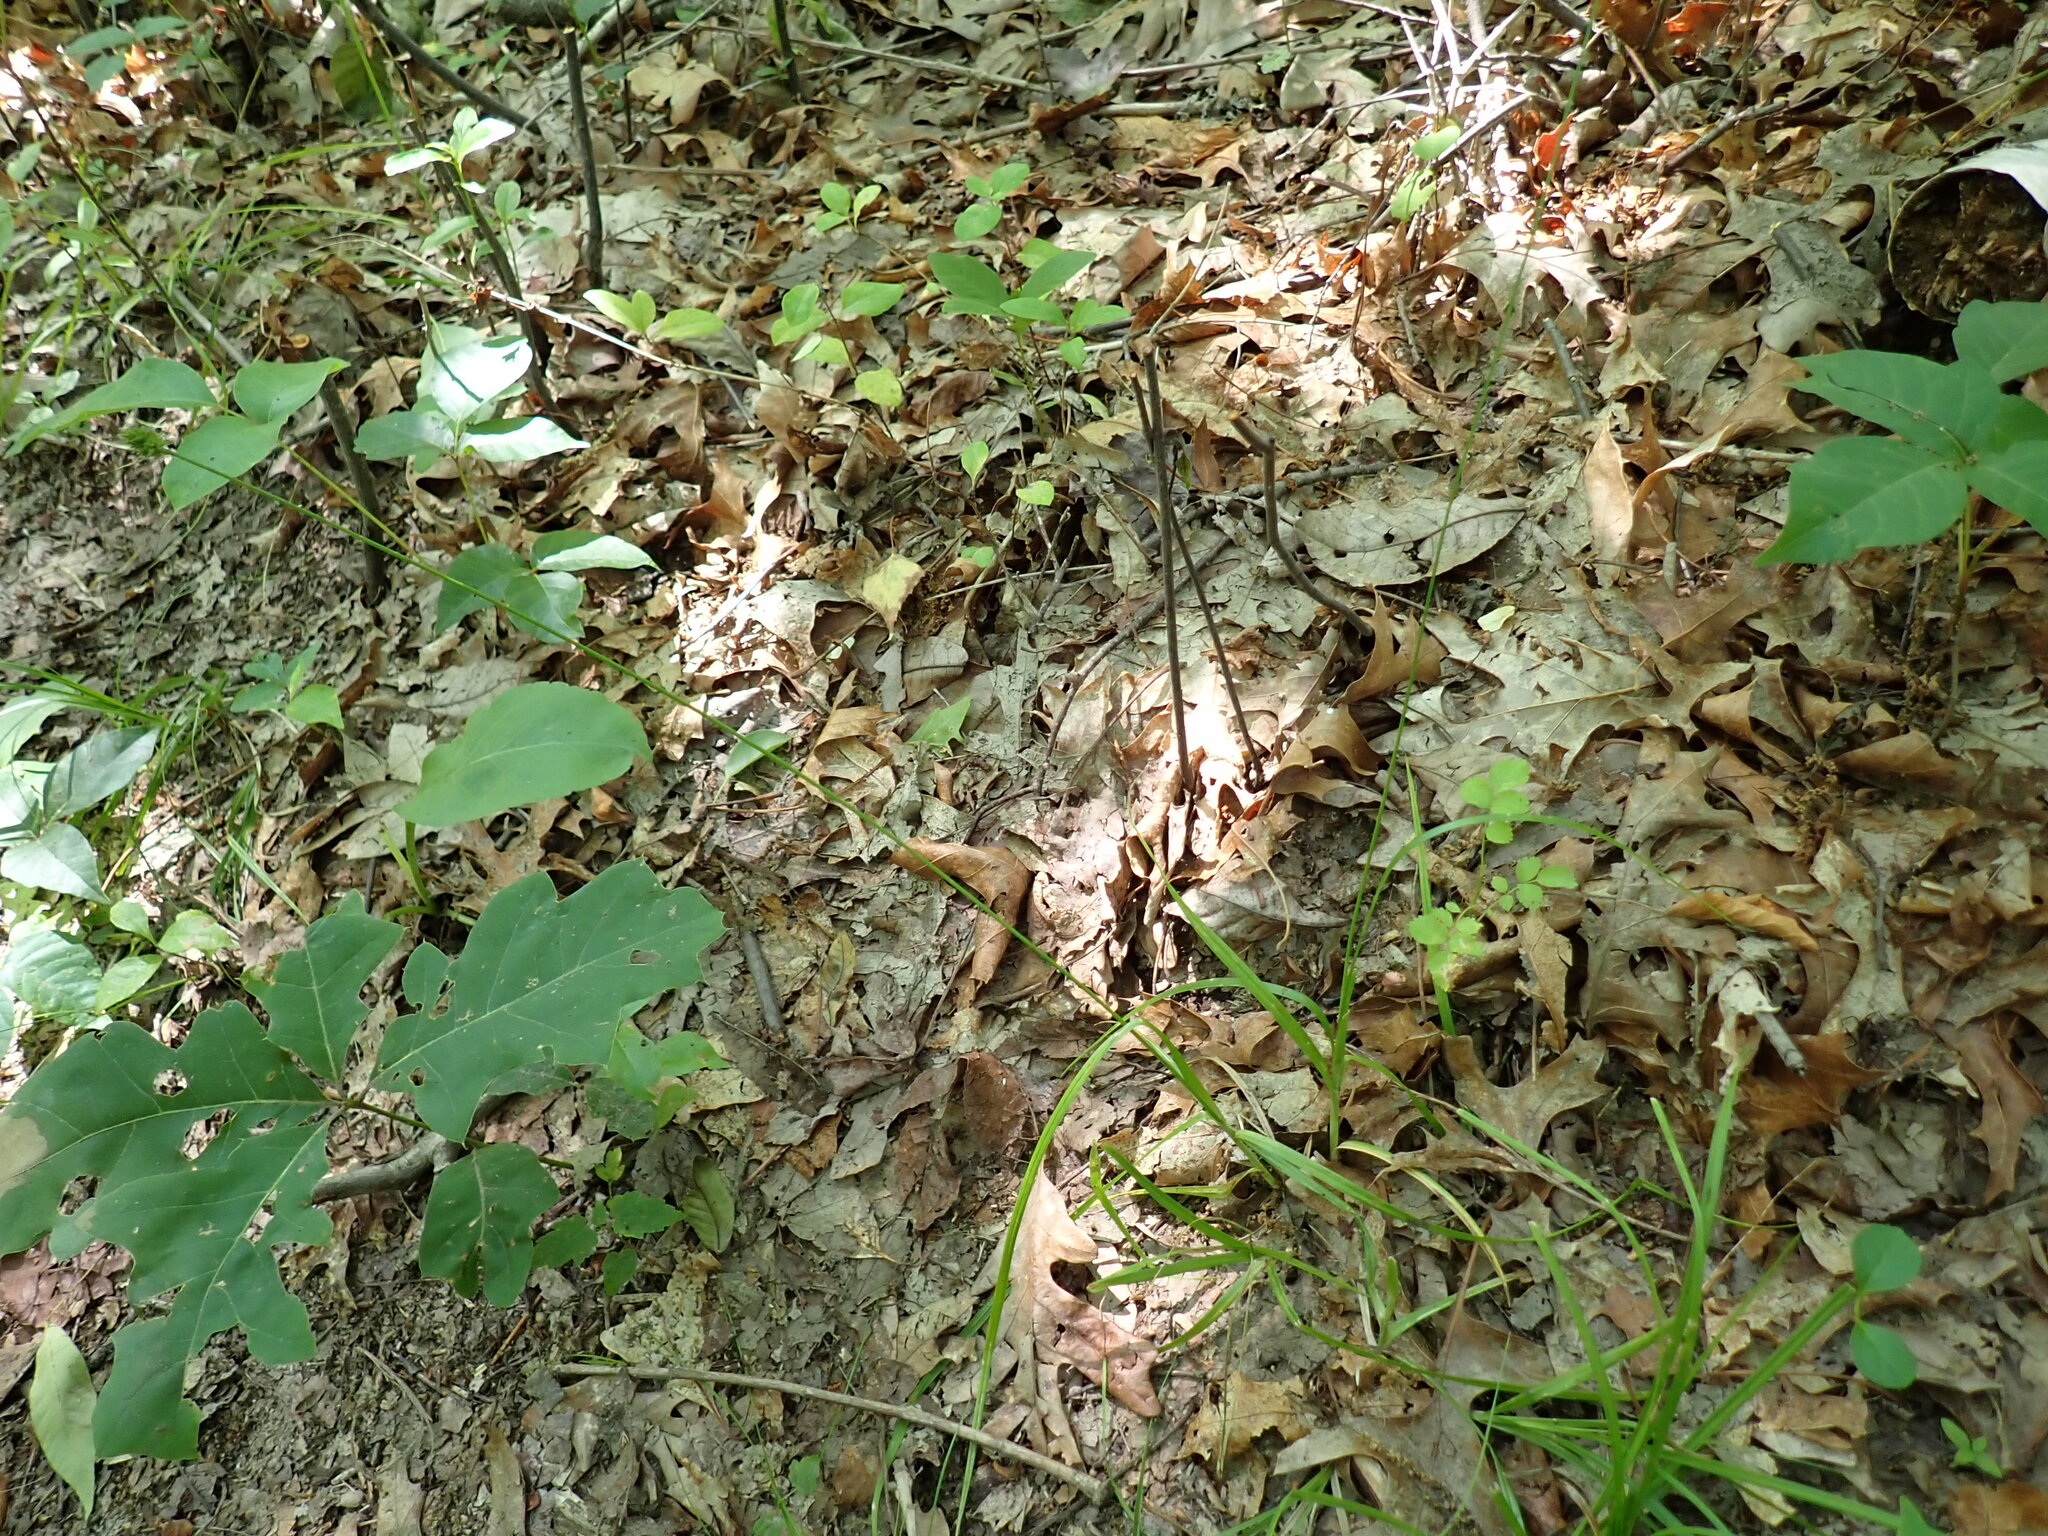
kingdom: Plantae
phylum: Tracheophyta
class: Liliopsida
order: Poales
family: Cyperaceae
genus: Carex
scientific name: Carex cephalophora
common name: Oval-headed sedge
